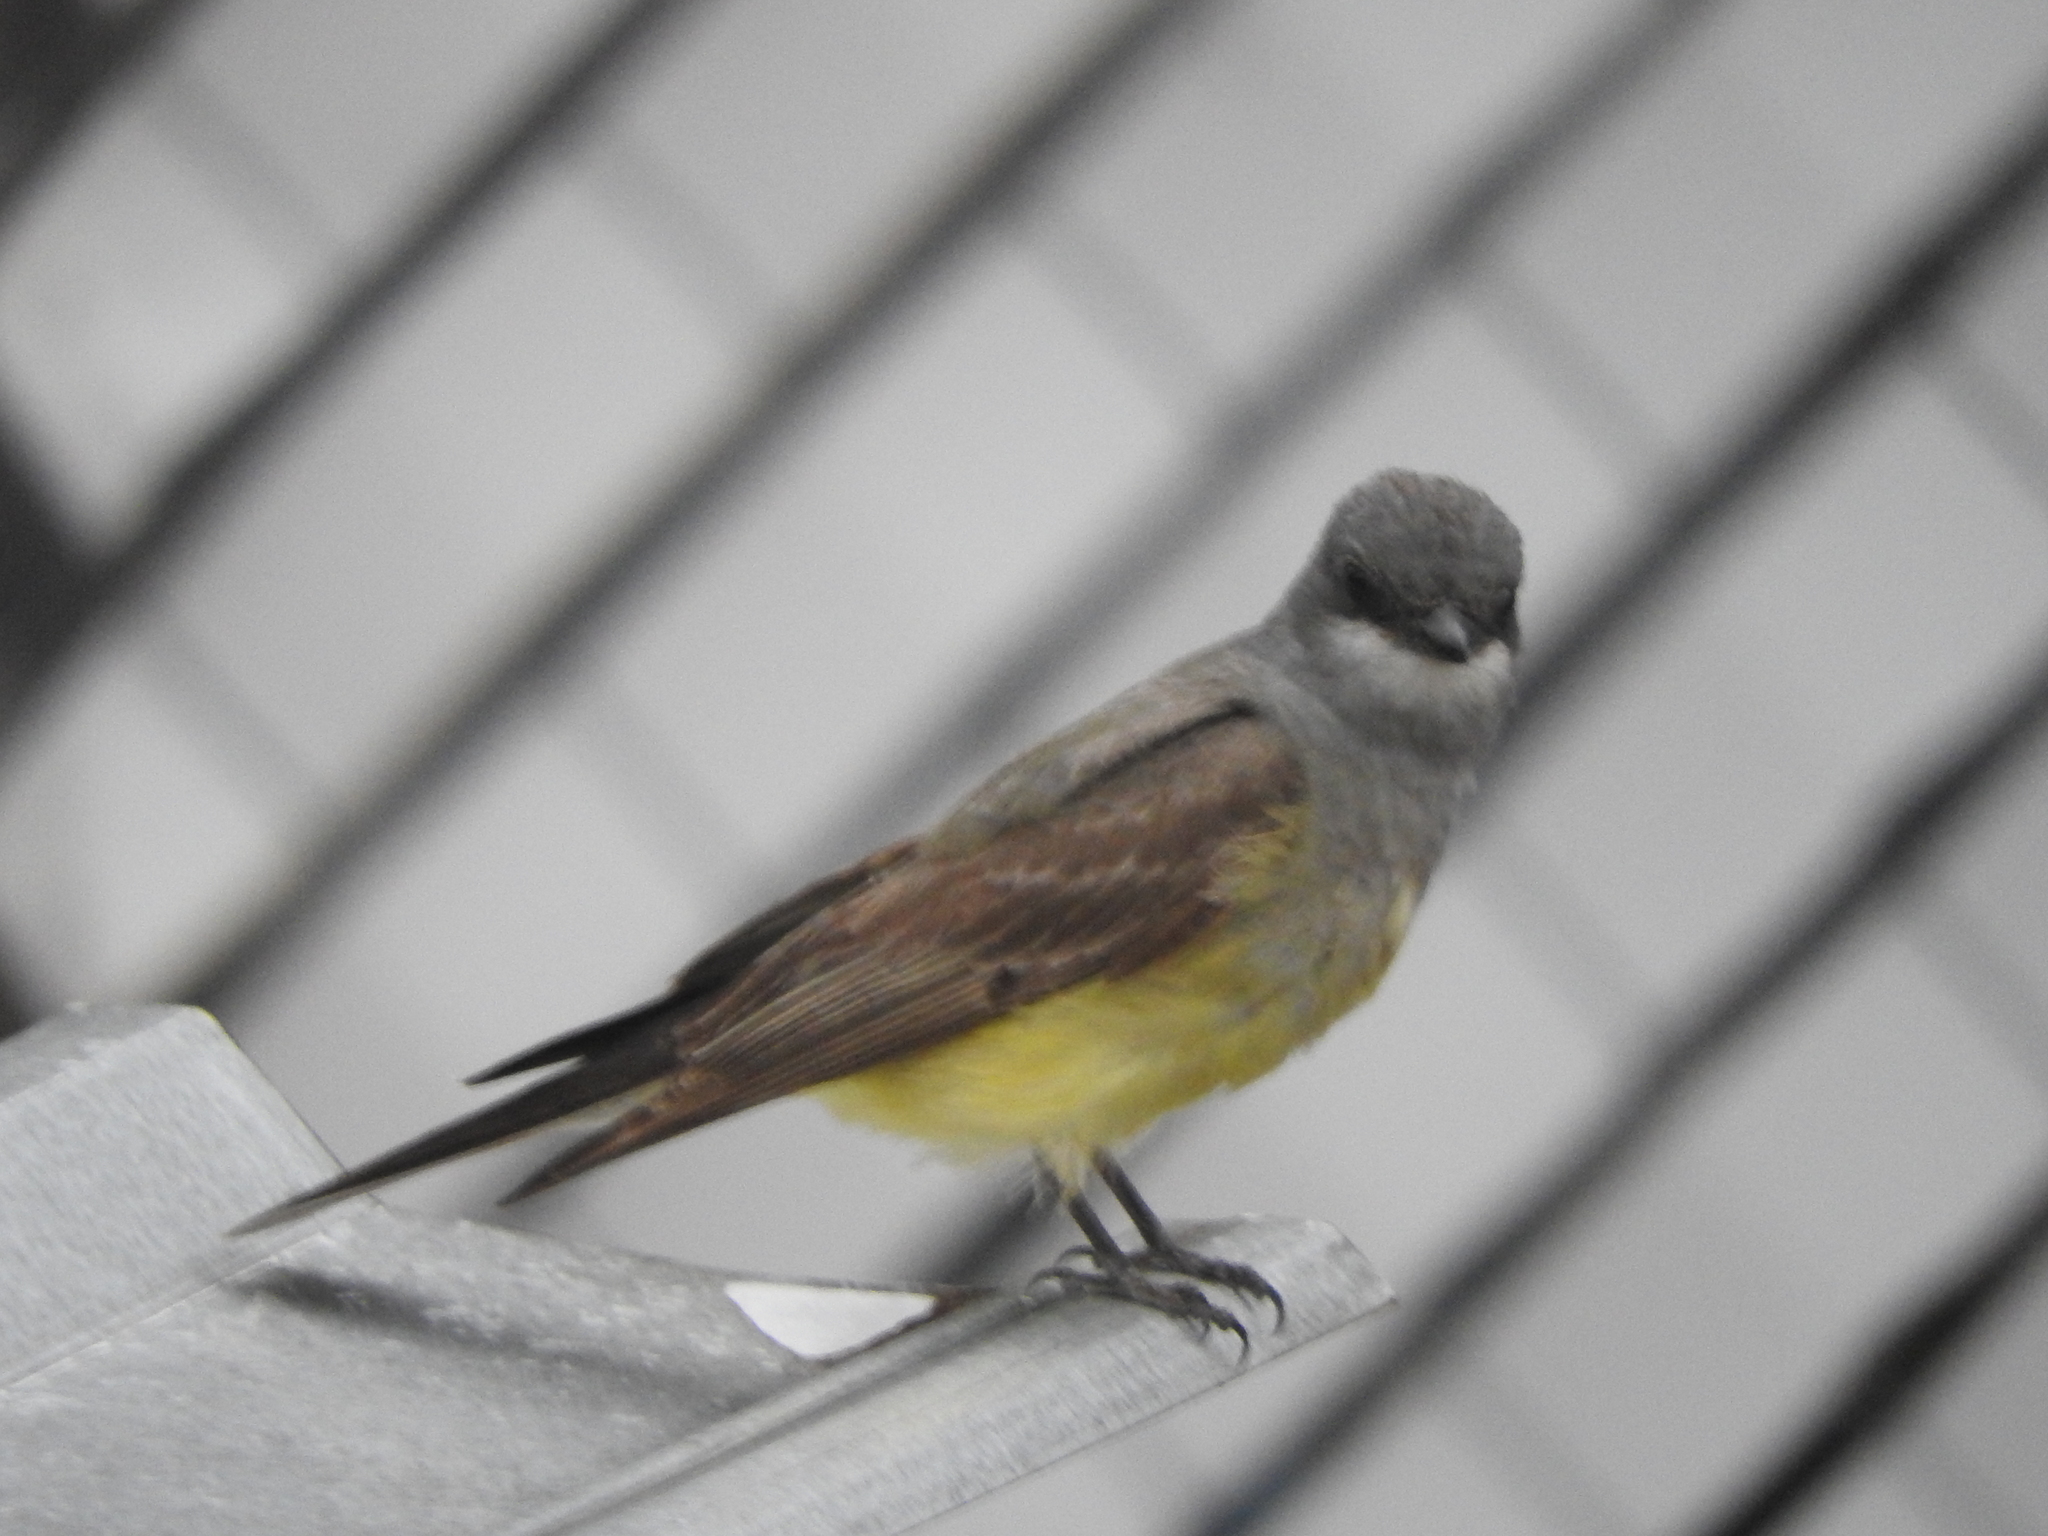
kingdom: Animalia
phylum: Chordata
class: Aves
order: Passeriformes
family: Tyrannidae
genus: Tyrannus
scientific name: Tyrannus vociferans
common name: Cassin's kingbird
